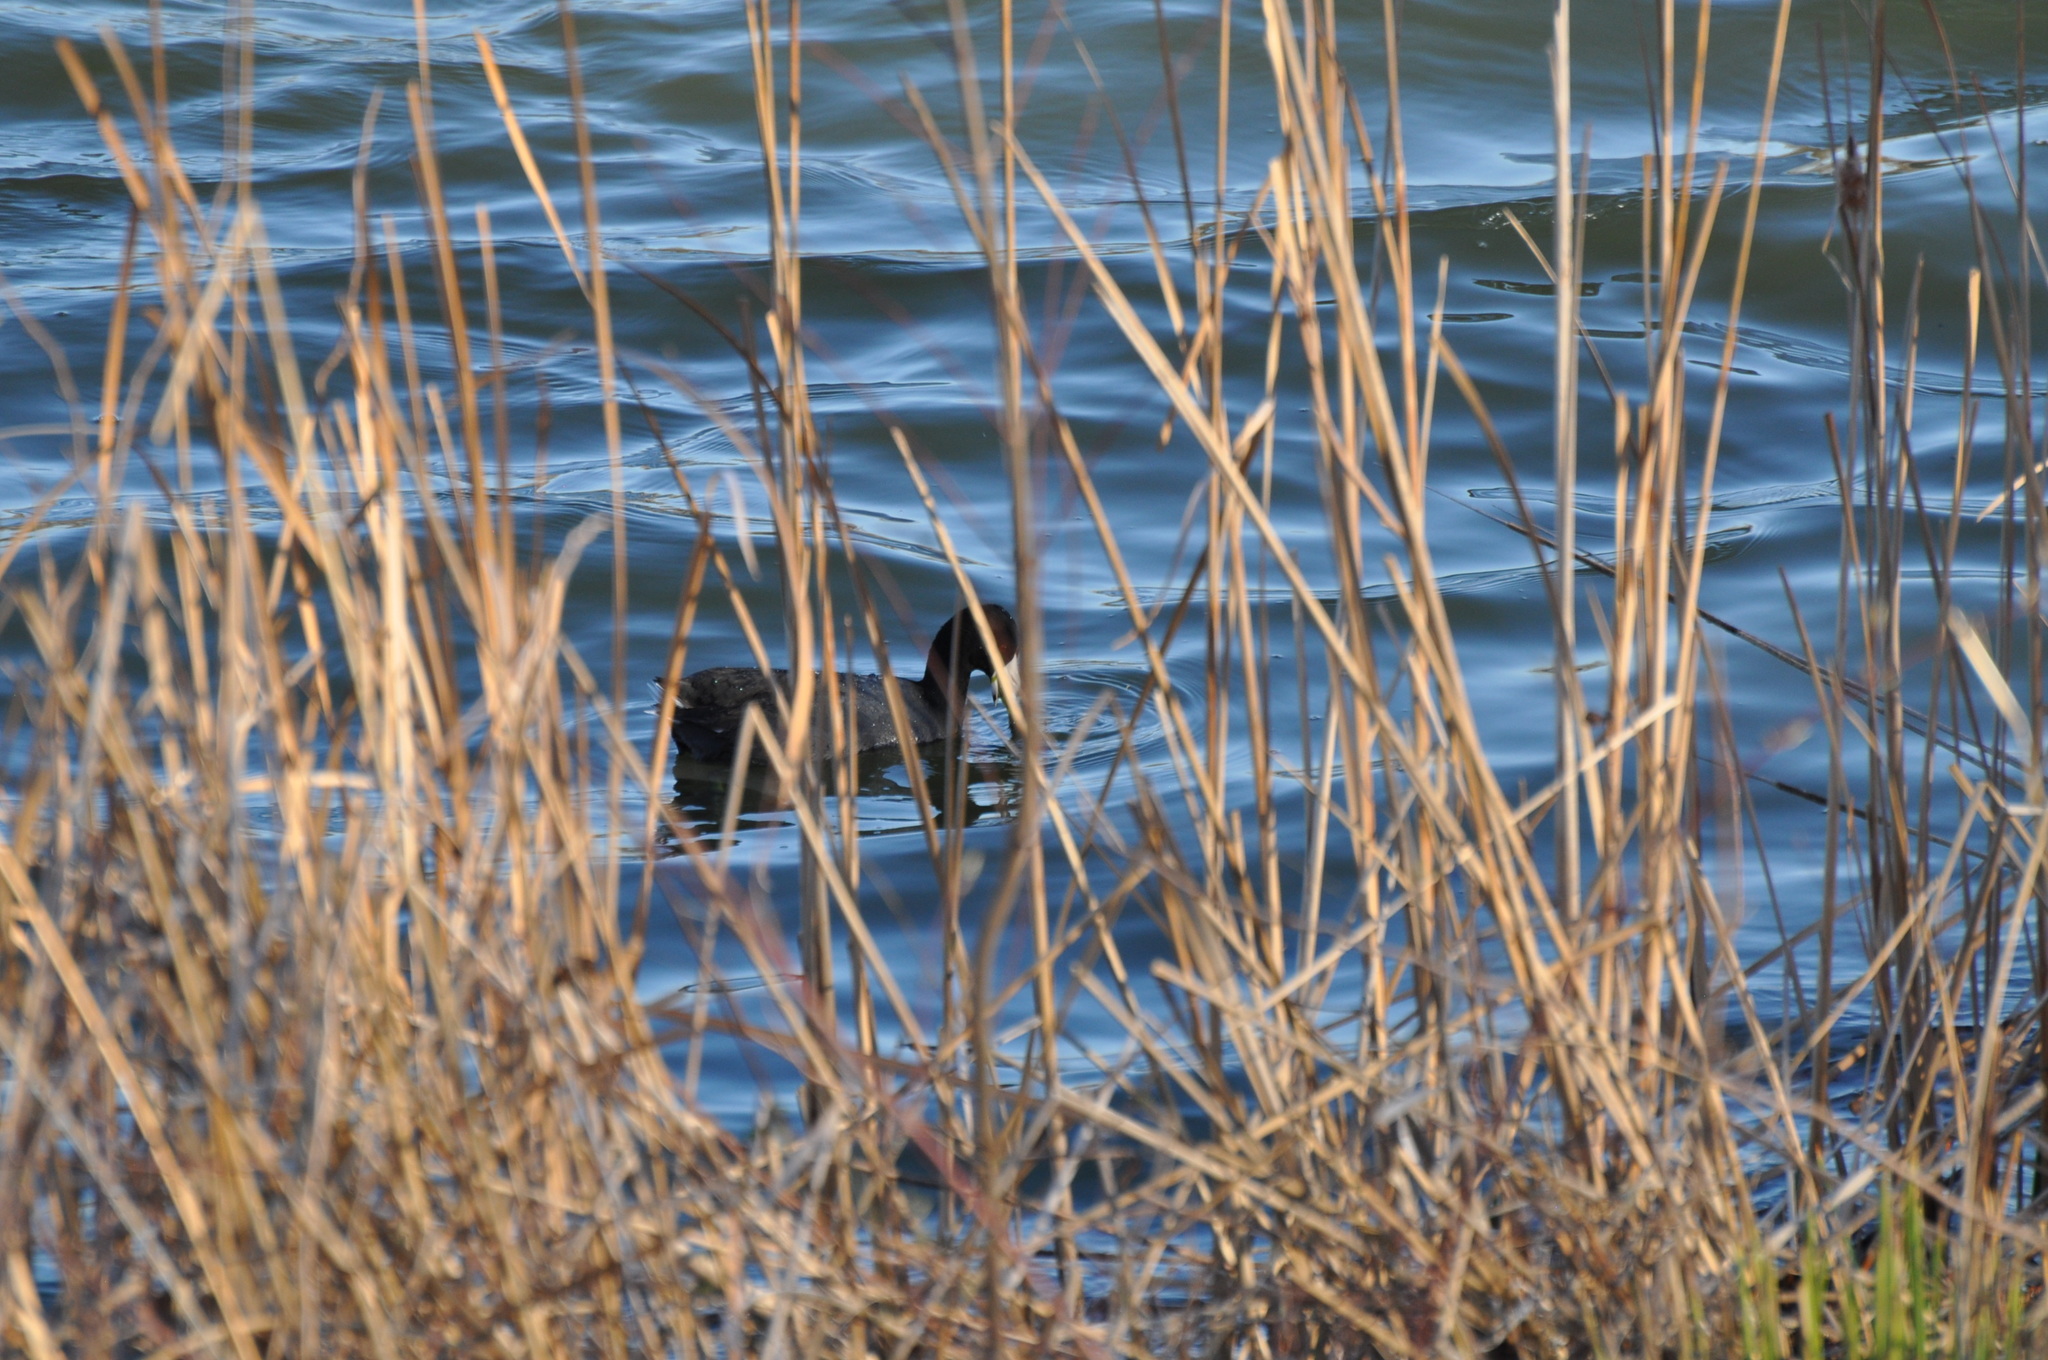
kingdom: Animalia
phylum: Chordata
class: Aves
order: Gruiformes
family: Rallidae
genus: Fulica
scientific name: Fulica americana
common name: American coot
